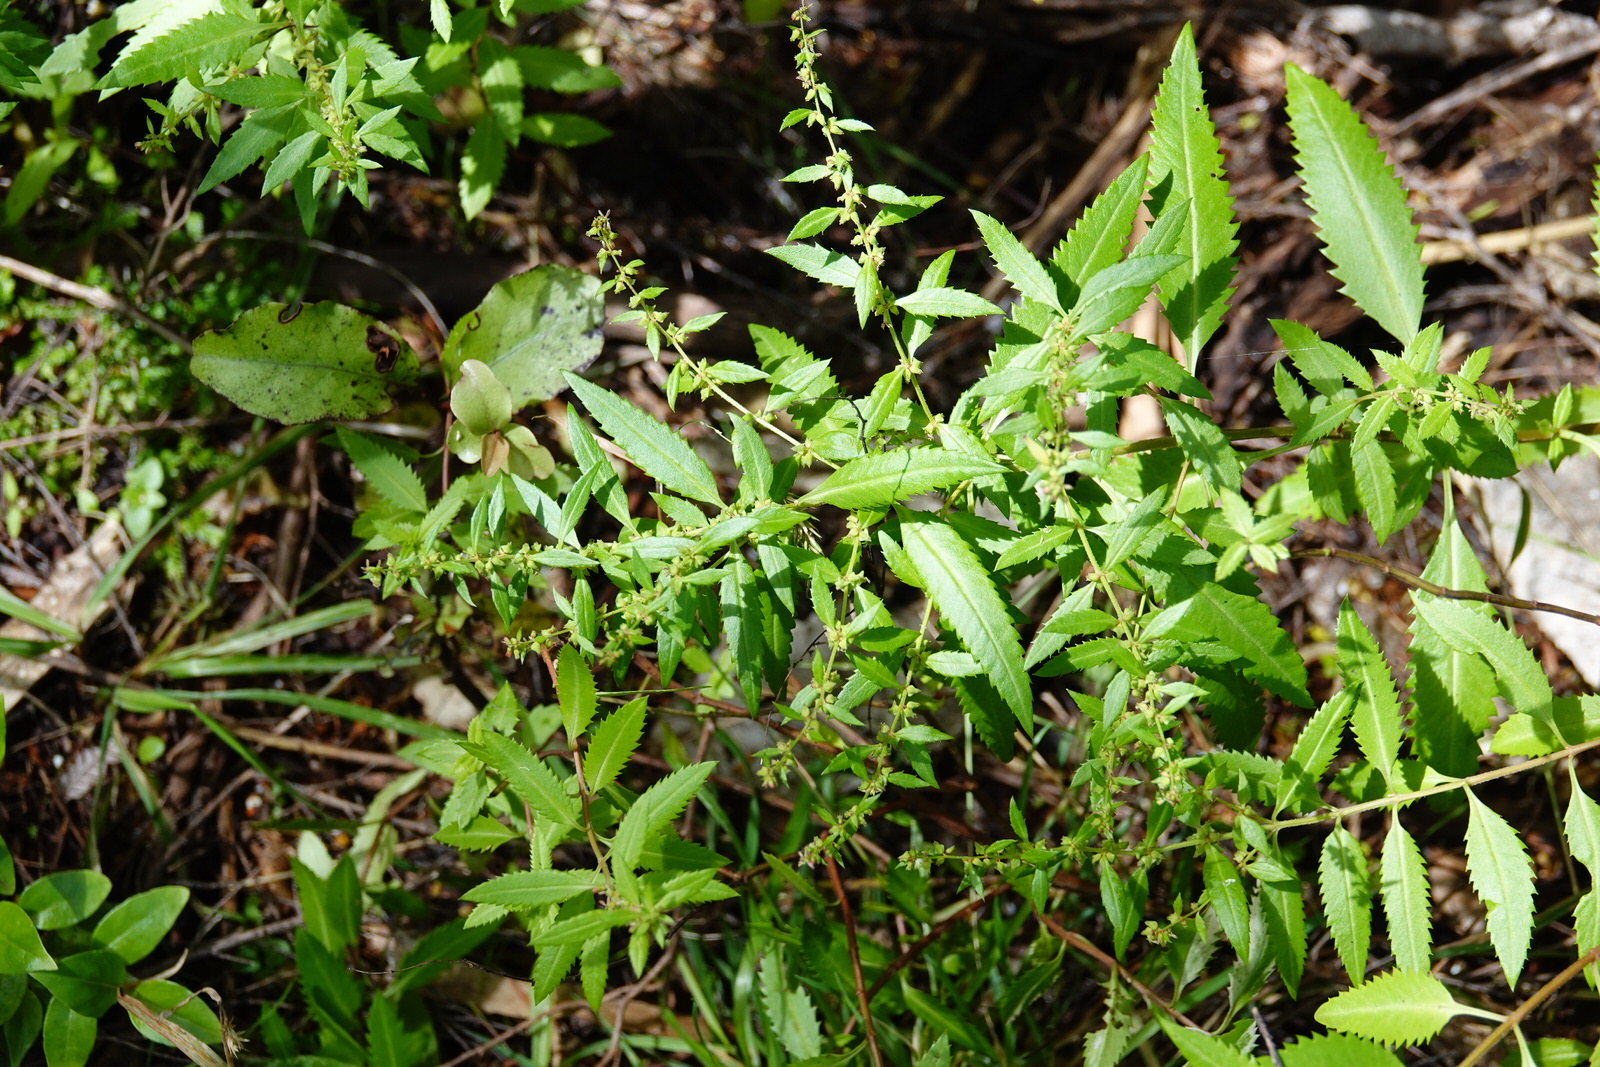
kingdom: Plantae
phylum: Tracheophyta
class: Magnoliopsida
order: Saxifragales
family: Haloragaceae
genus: Haloragis
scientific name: Haloragis erecta
